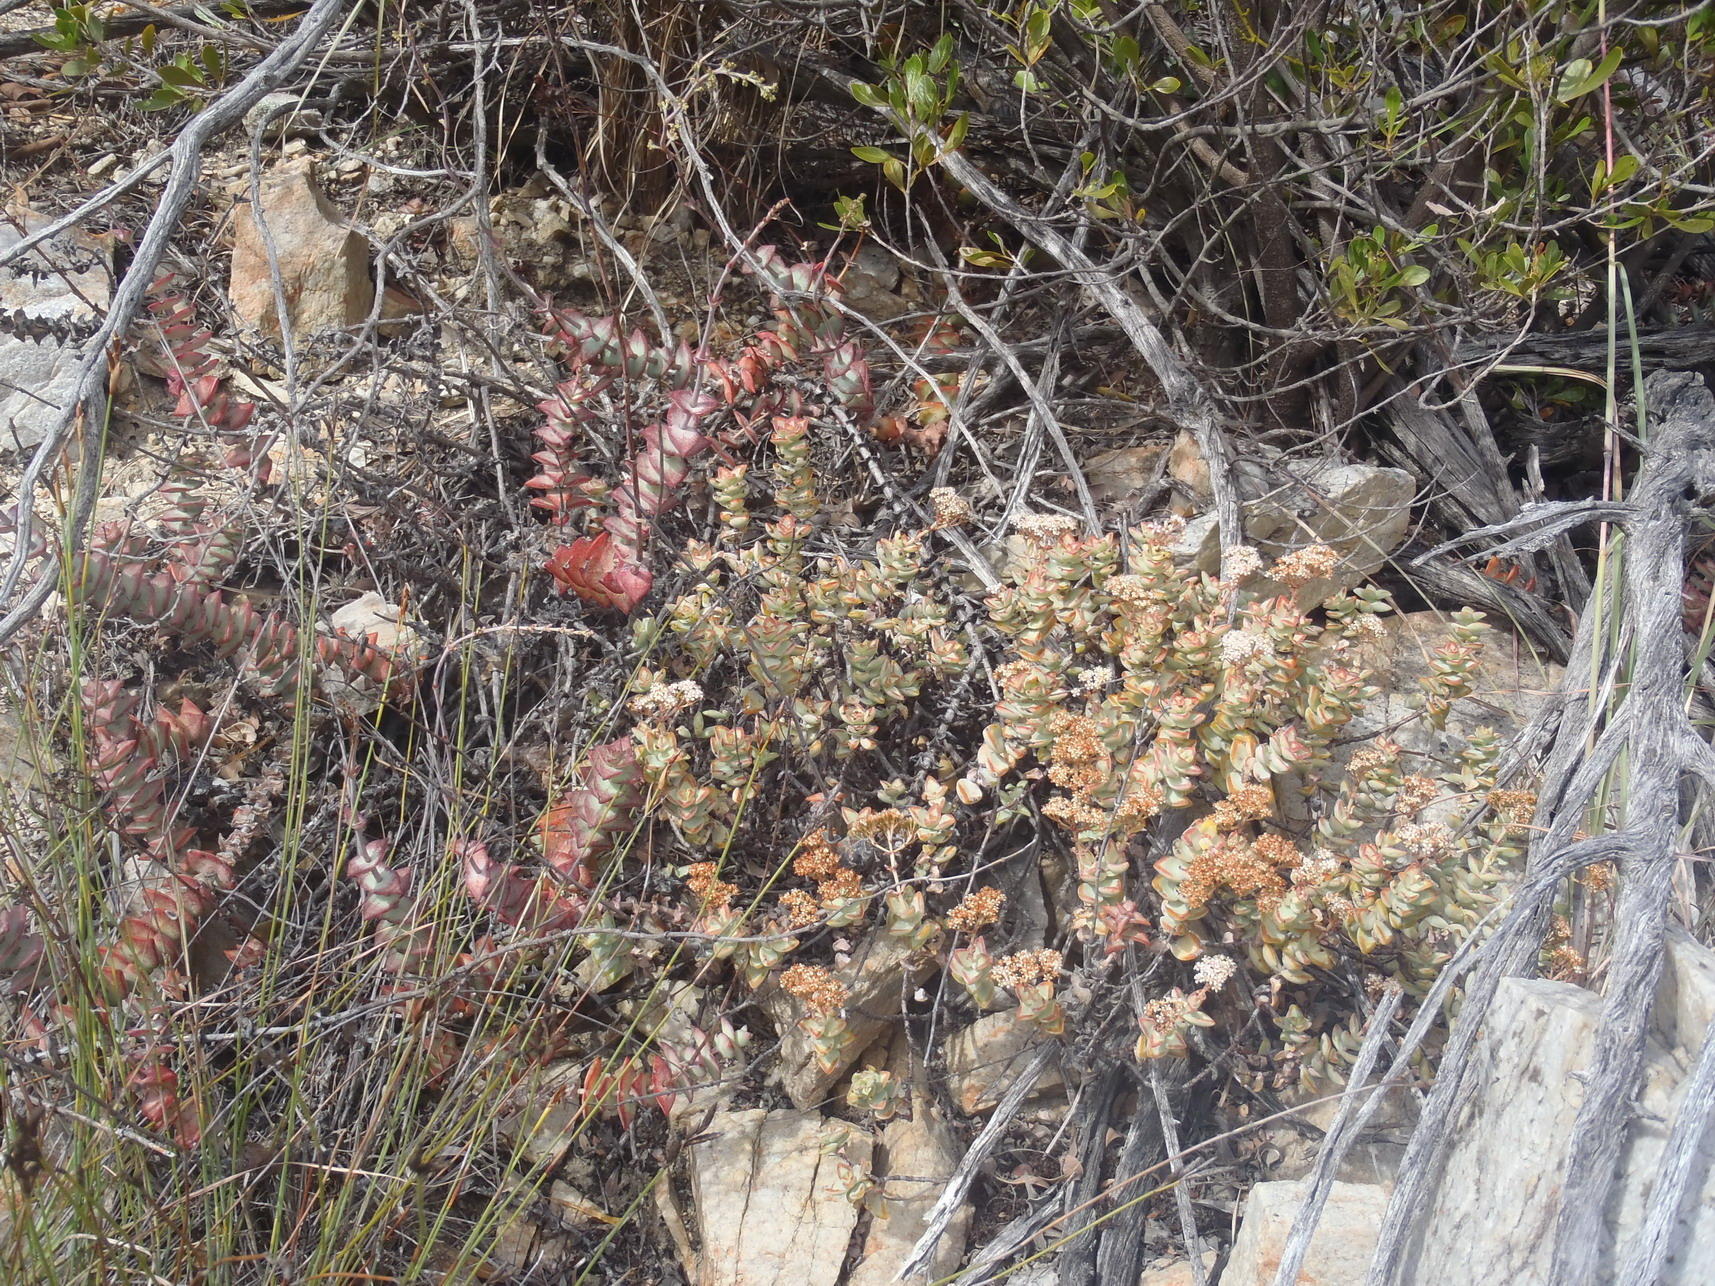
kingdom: Plantae
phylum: Tracheophyta
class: Magnoliopsida
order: Saxifragales
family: Crassulaceae
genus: Crassula
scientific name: Crassula perforata
